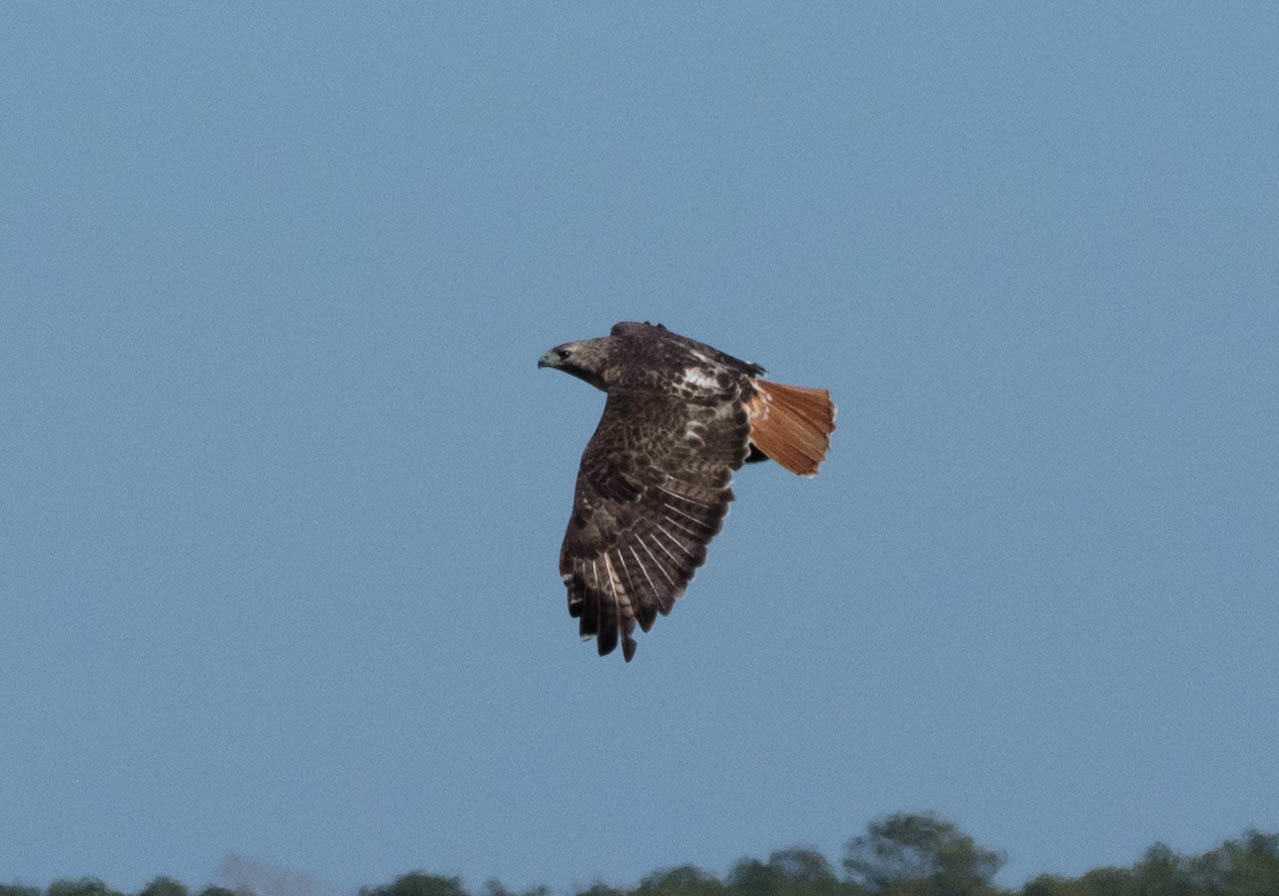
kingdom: Animalia
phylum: Chordata
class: Aves
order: Accipitriformes
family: Accipitridae
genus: Buteo
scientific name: Buteo jamaicensis
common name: Red-tailed hawk
